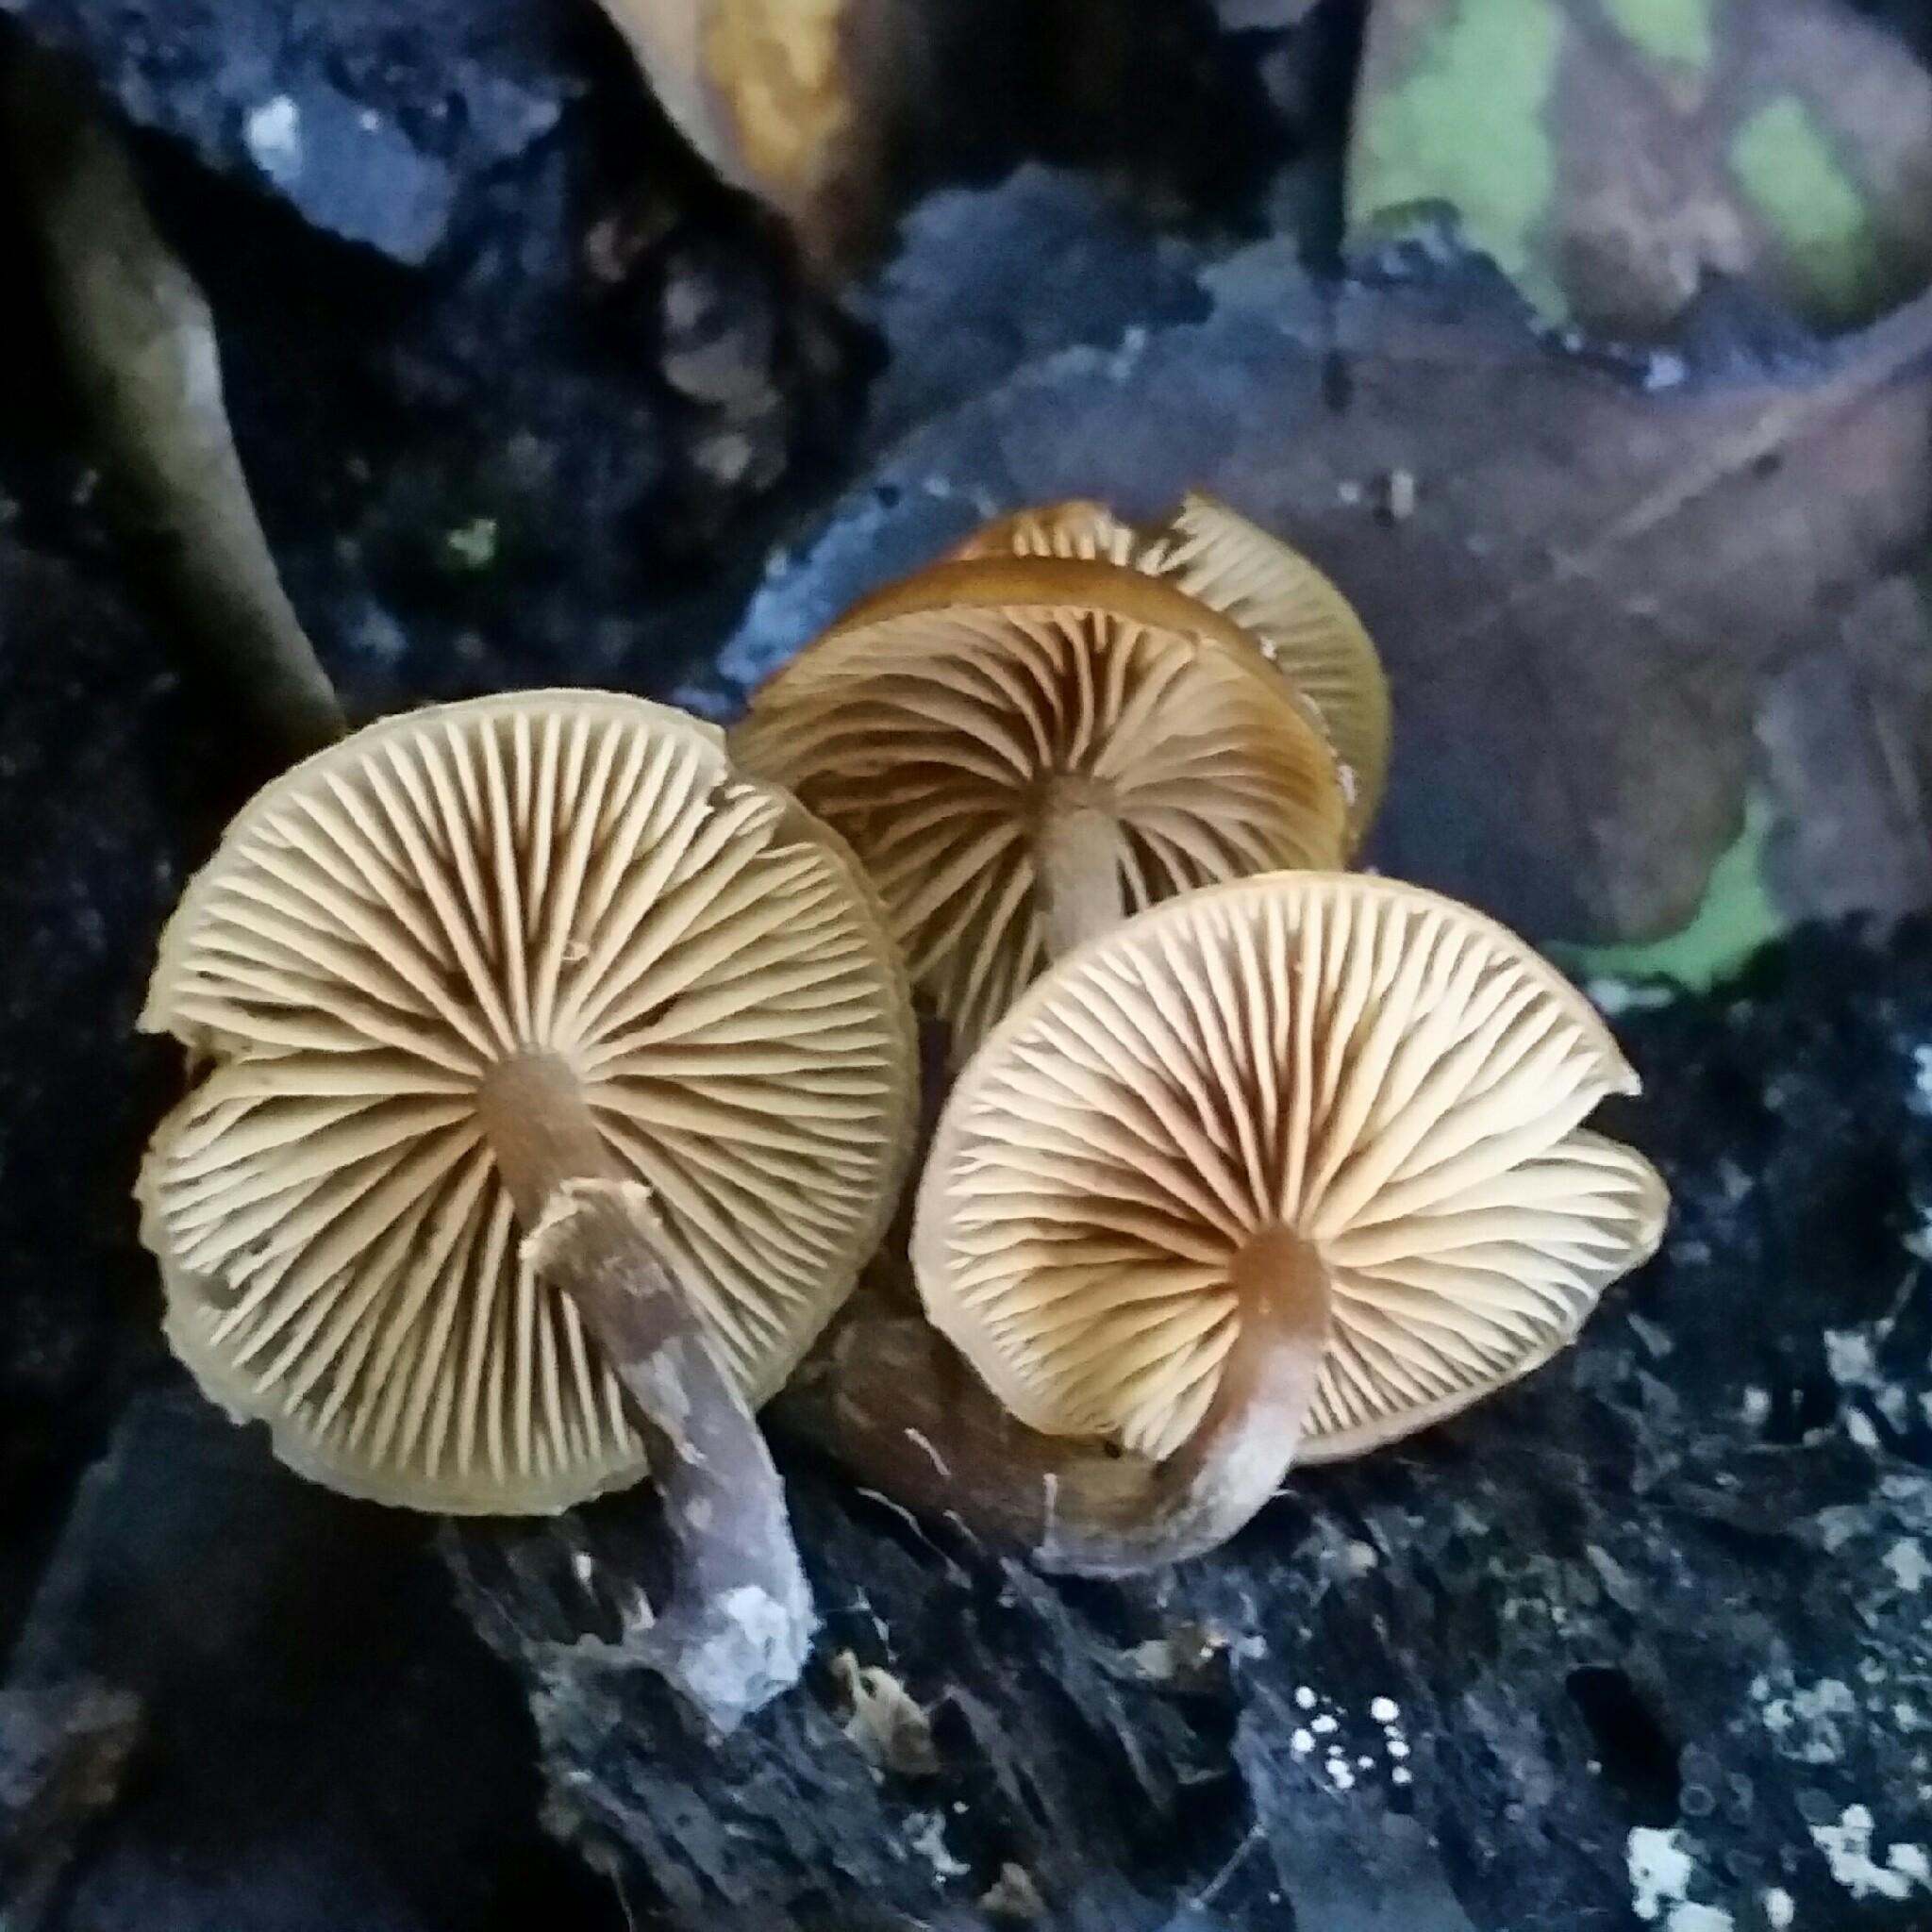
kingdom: Fungi
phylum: Basidiomycota
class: Agaricomycetes
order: Agaricales
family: Hymenogastraceae
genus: Galerina
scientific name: Galerina marginata
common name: Funeral bell
